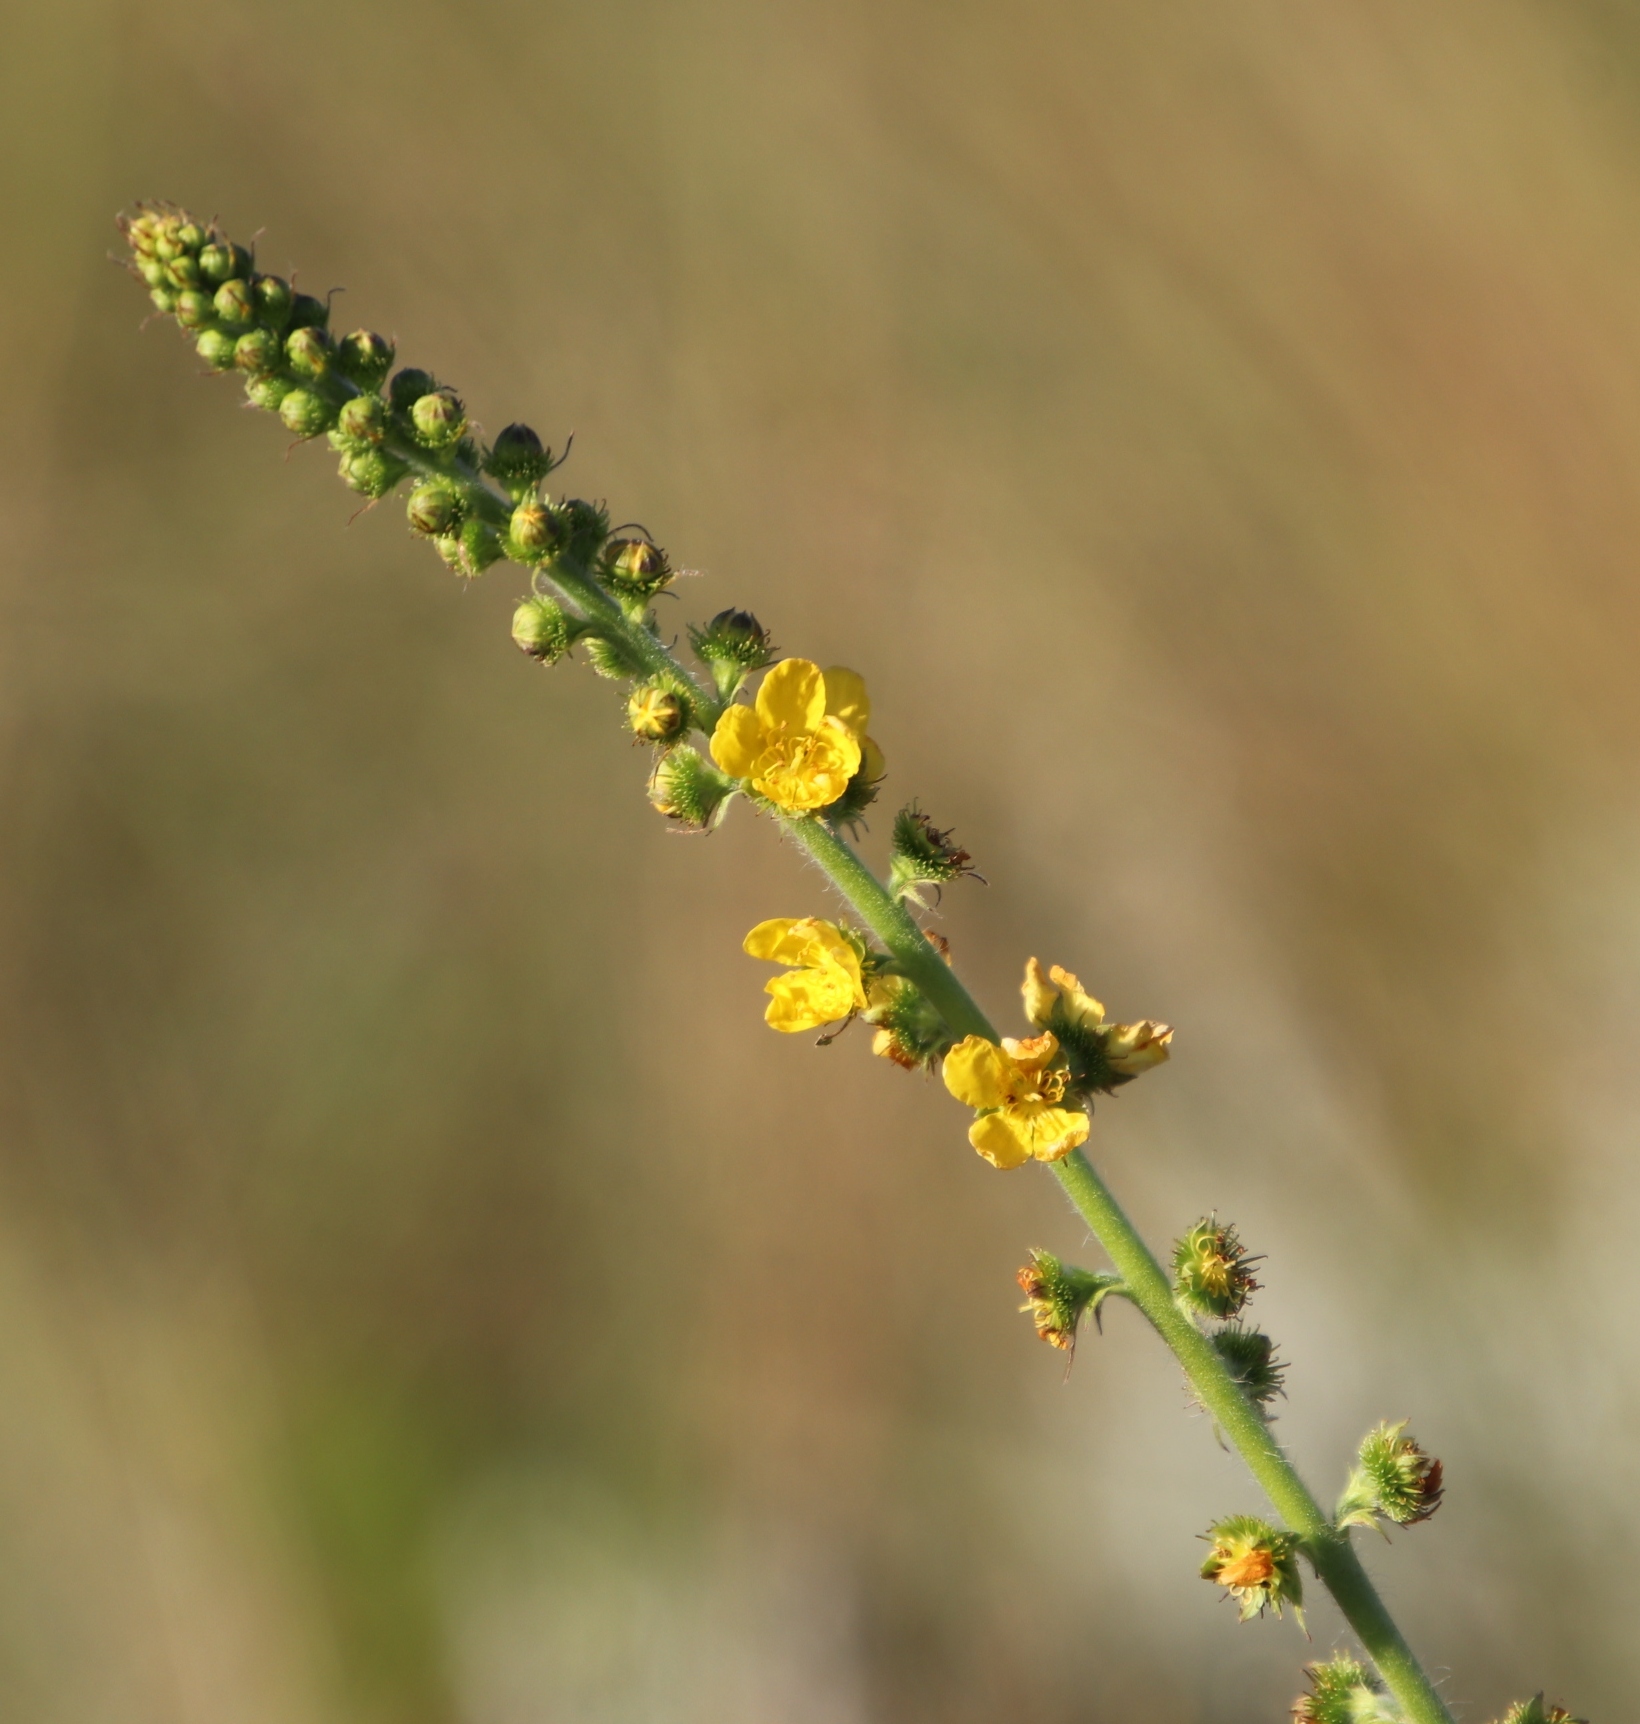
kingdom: Plantae
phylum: Tracheophyta
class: Magnoliopsida
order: Rosales
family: Rosaceae
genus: Agrimonia
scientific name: Agrimonia bracteata
